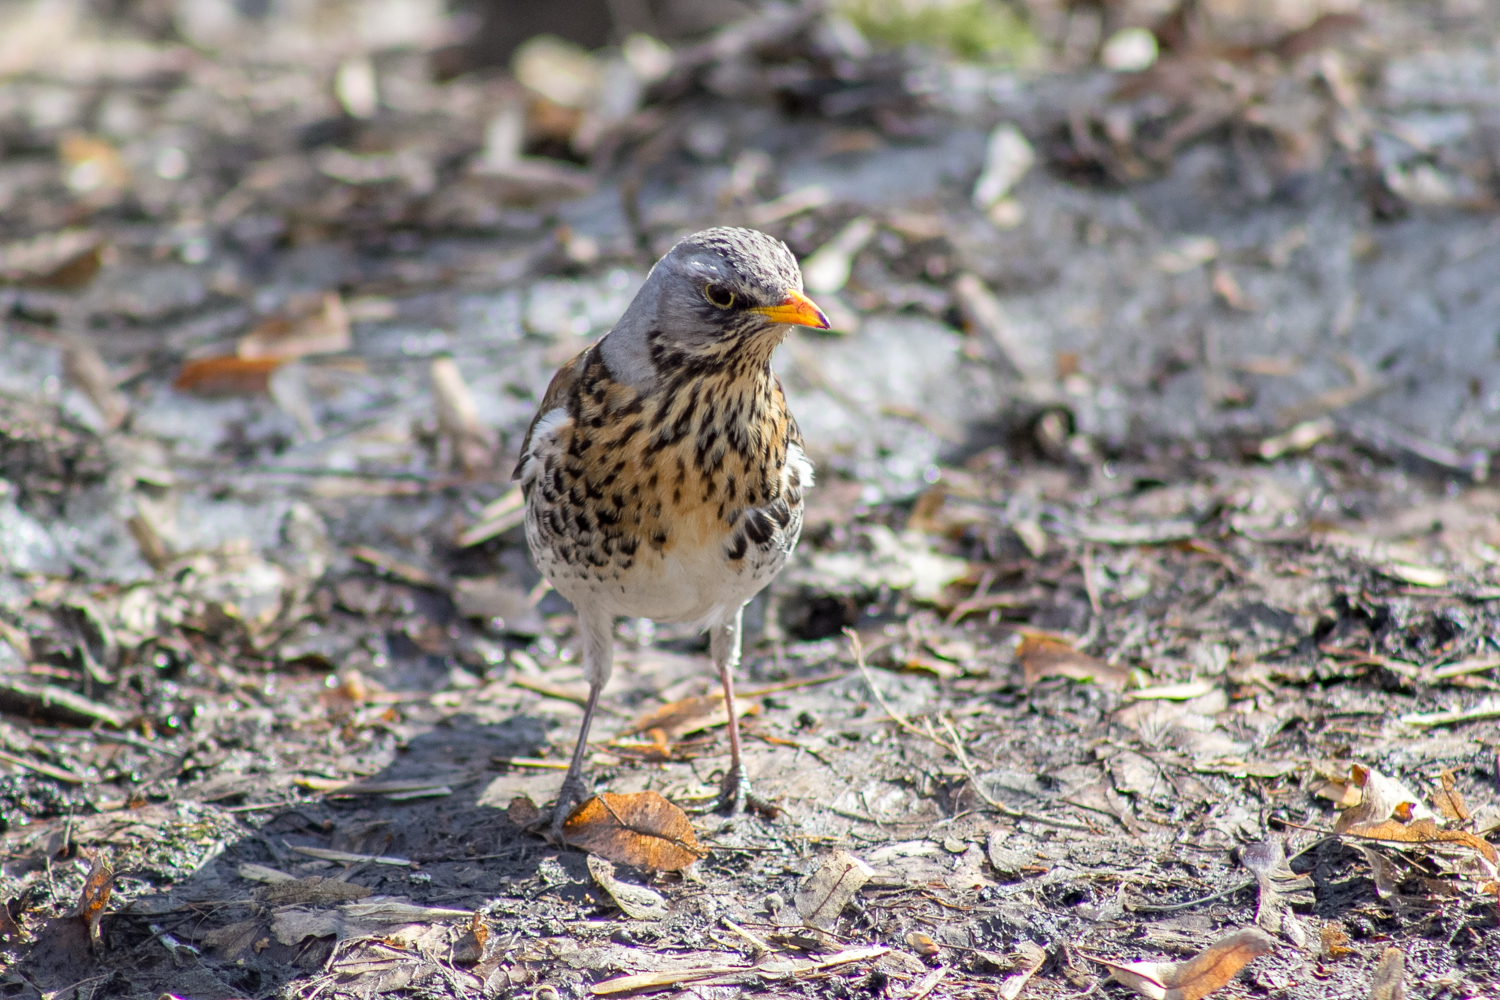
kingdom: Animalia
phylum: Chordata
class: Aves
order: Passeriformes
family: Turdidae
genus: Turdus
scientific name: Turdus pilaris
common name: Fieldfare
